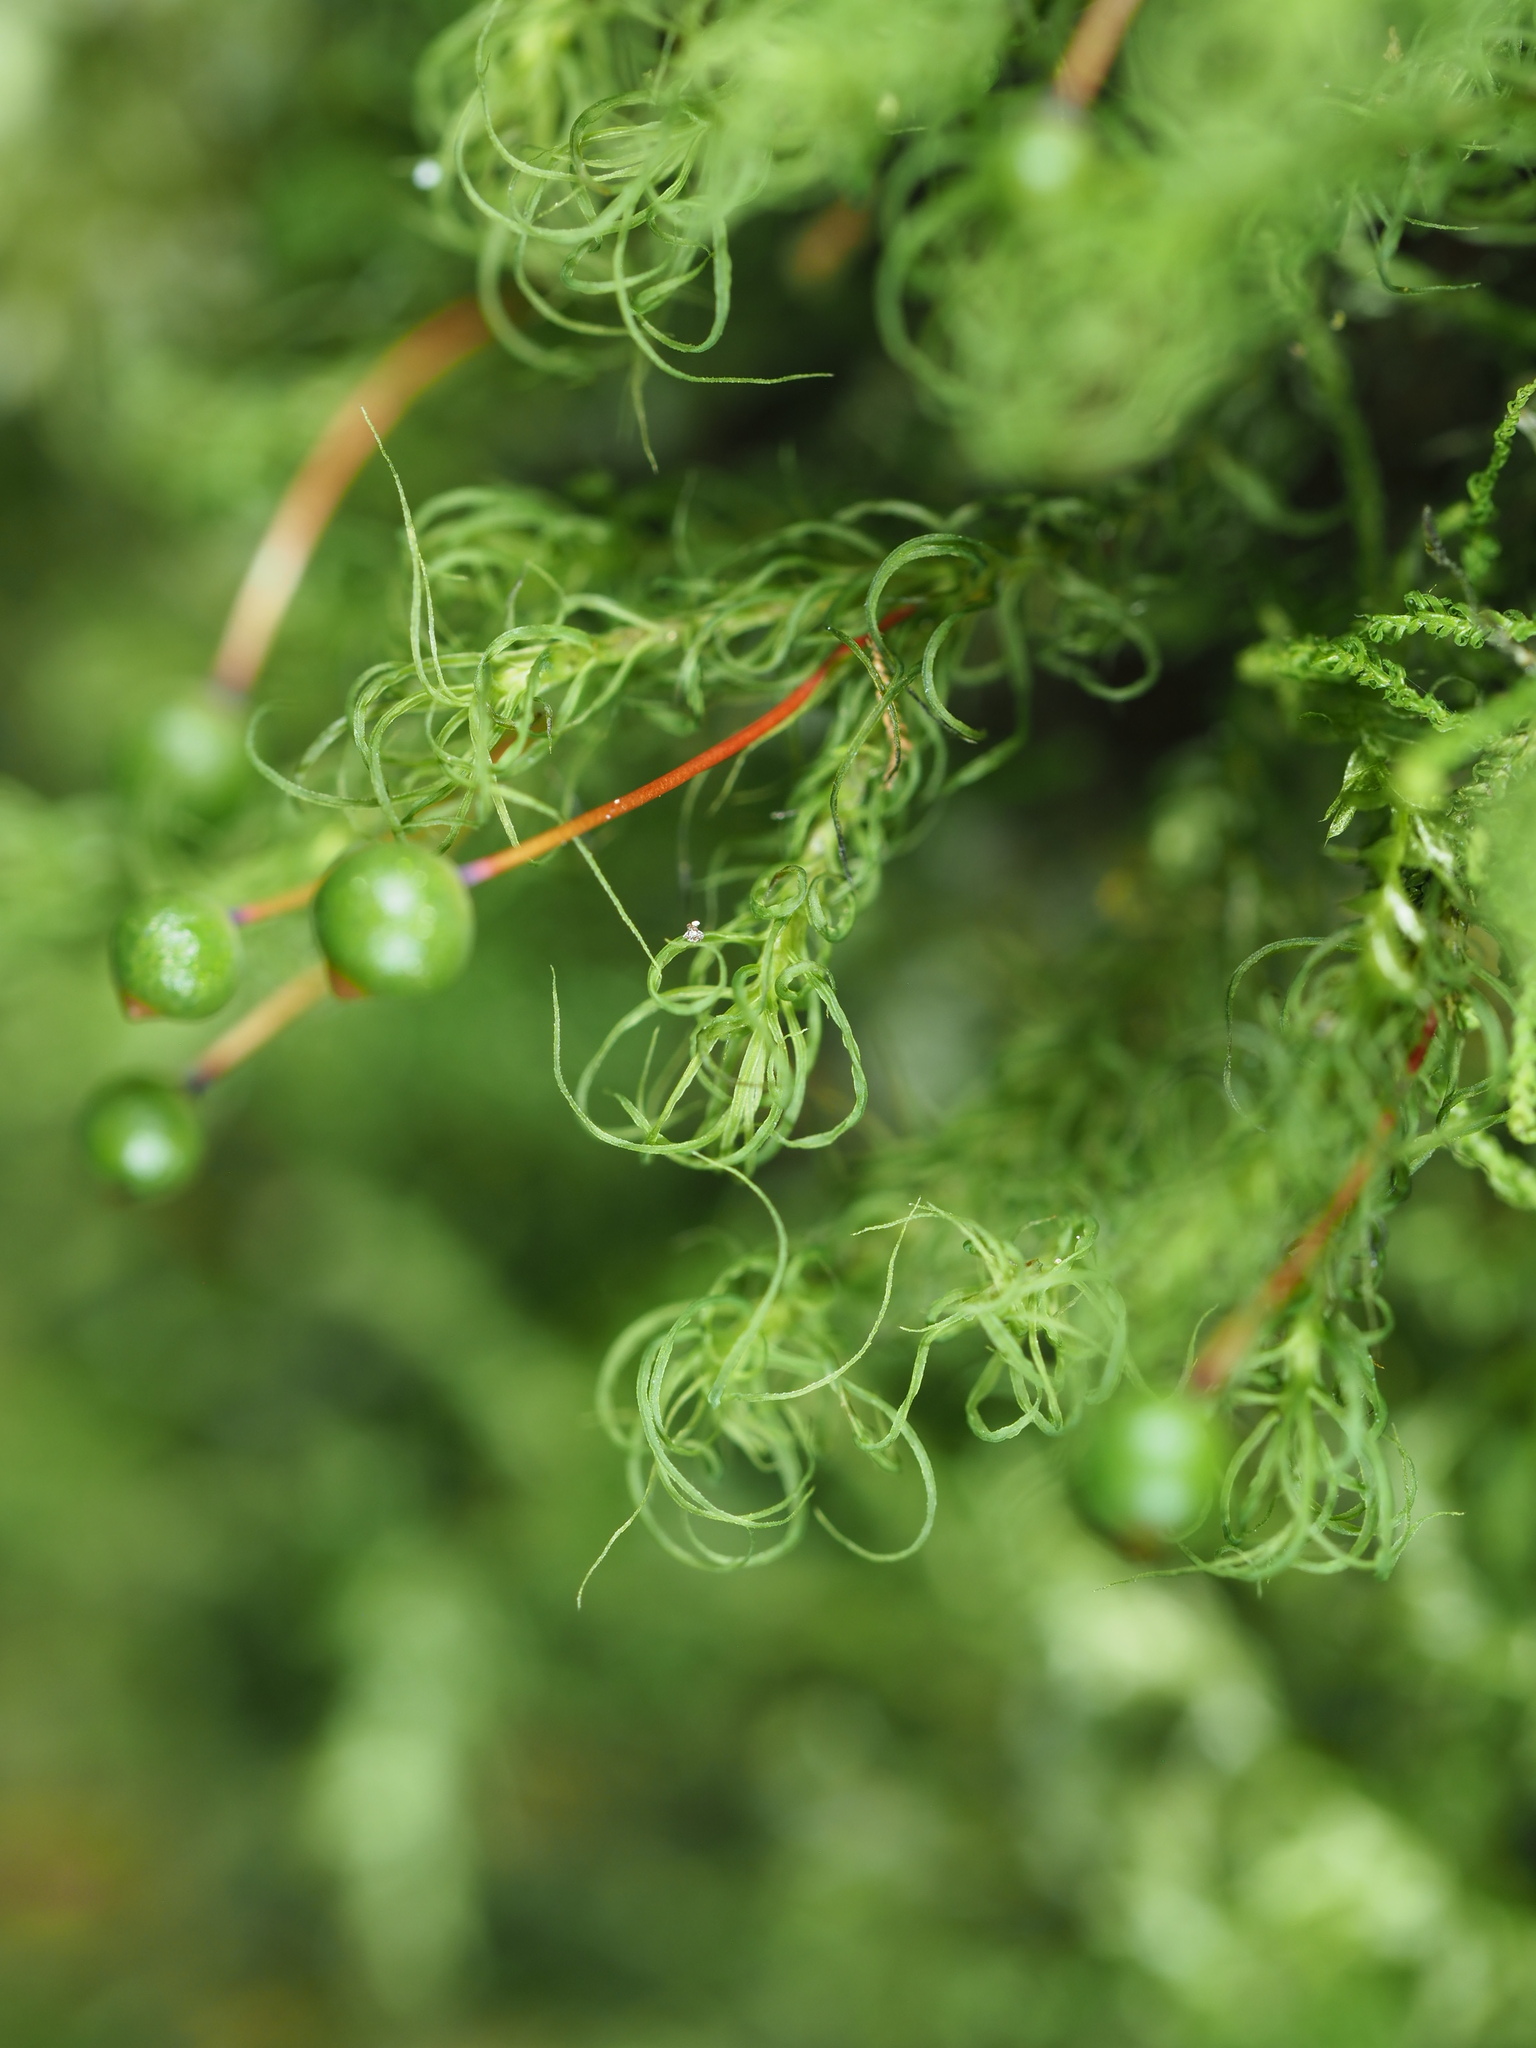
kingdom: Plantae
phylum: Bryophyta
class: Bryopsida
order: Bartramiales
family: Bartramiaceae
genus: Bartramia
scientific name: Bartramia ithyphylla
